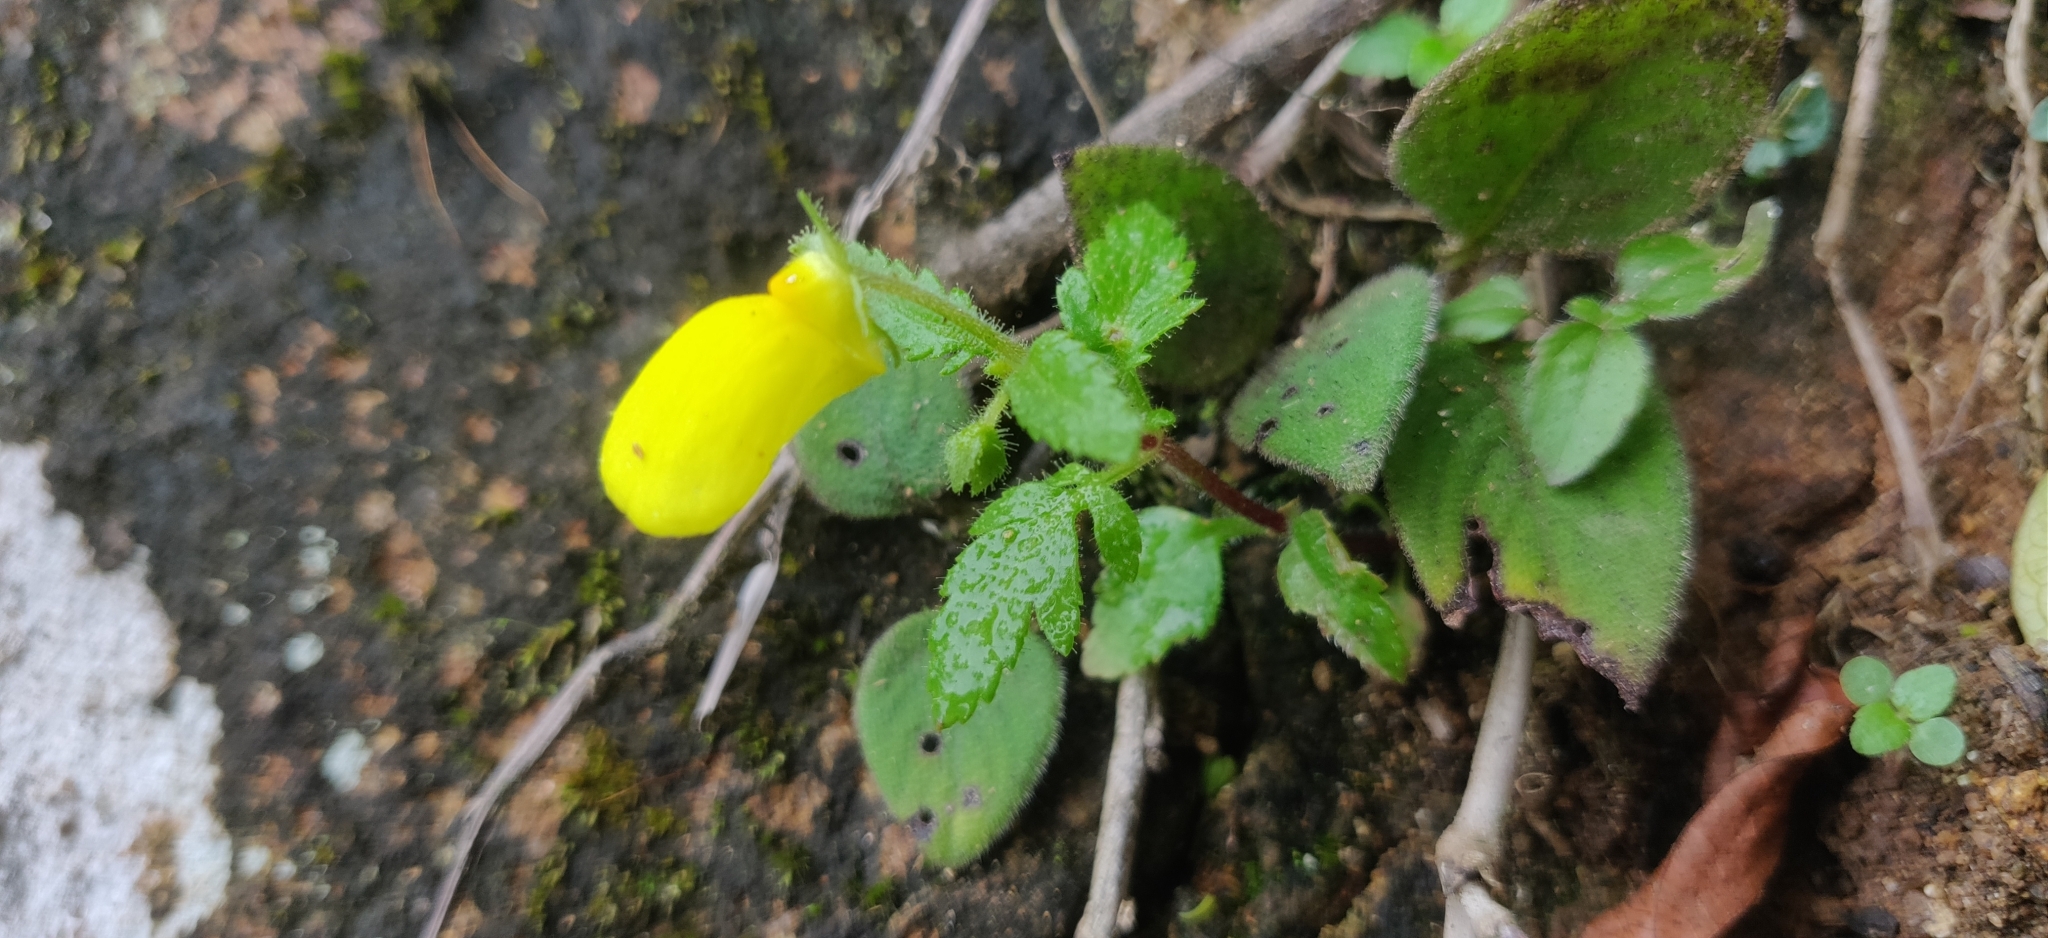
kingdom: Plantae
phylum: Tracheophyta
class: Magnoliopsida
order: Lamiales
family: Calceolariaceae
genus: Calceolaria
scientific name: Calceolaria tripartita
